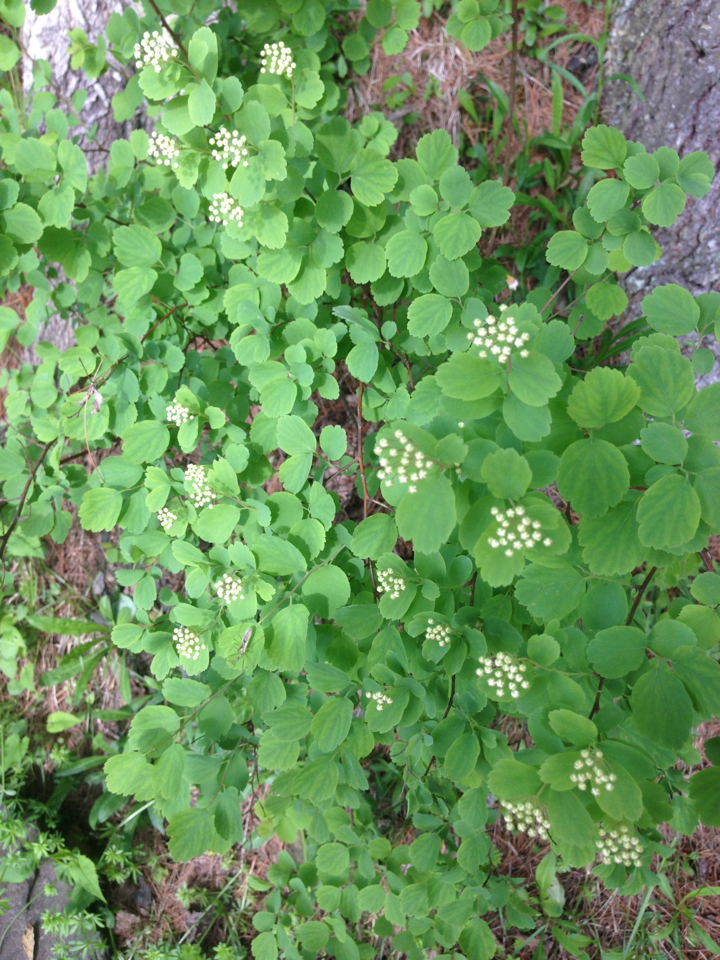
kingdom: Plantae
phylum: Tracheophyta
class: Magnoliopsida
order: Rosales
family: Rosaceae
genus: Spiraea
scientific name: Spiraea vanhouttei
